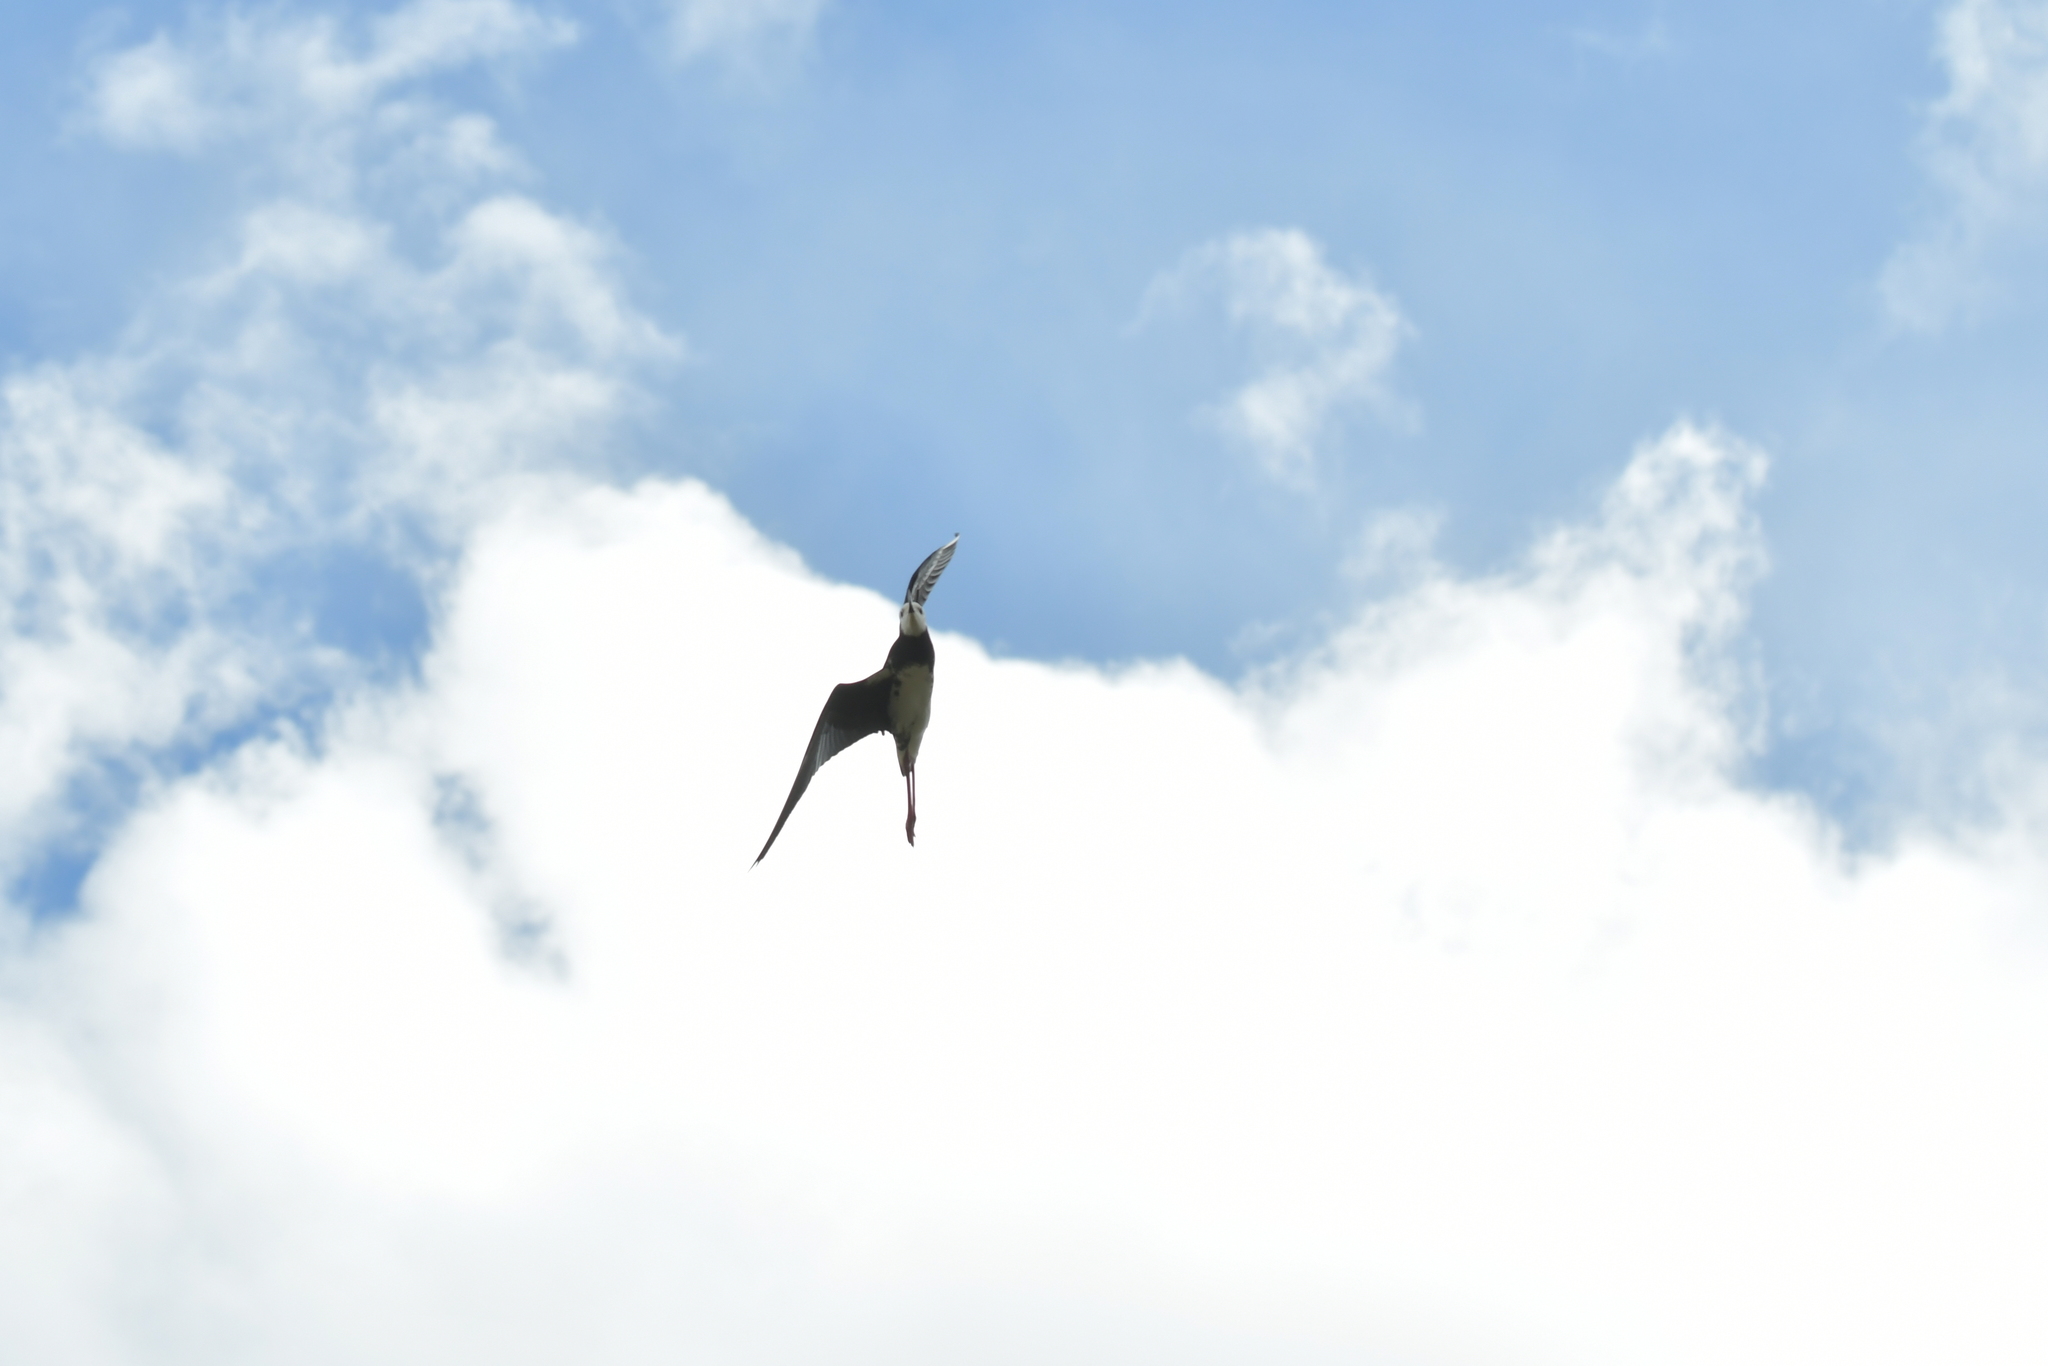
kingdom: Animalia
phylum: Chordata
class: Aves
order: Charadriiformes
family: Recurvirostridae
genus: Himantopus
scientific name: Himantopus leucocephalus
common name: White-headed stilt
